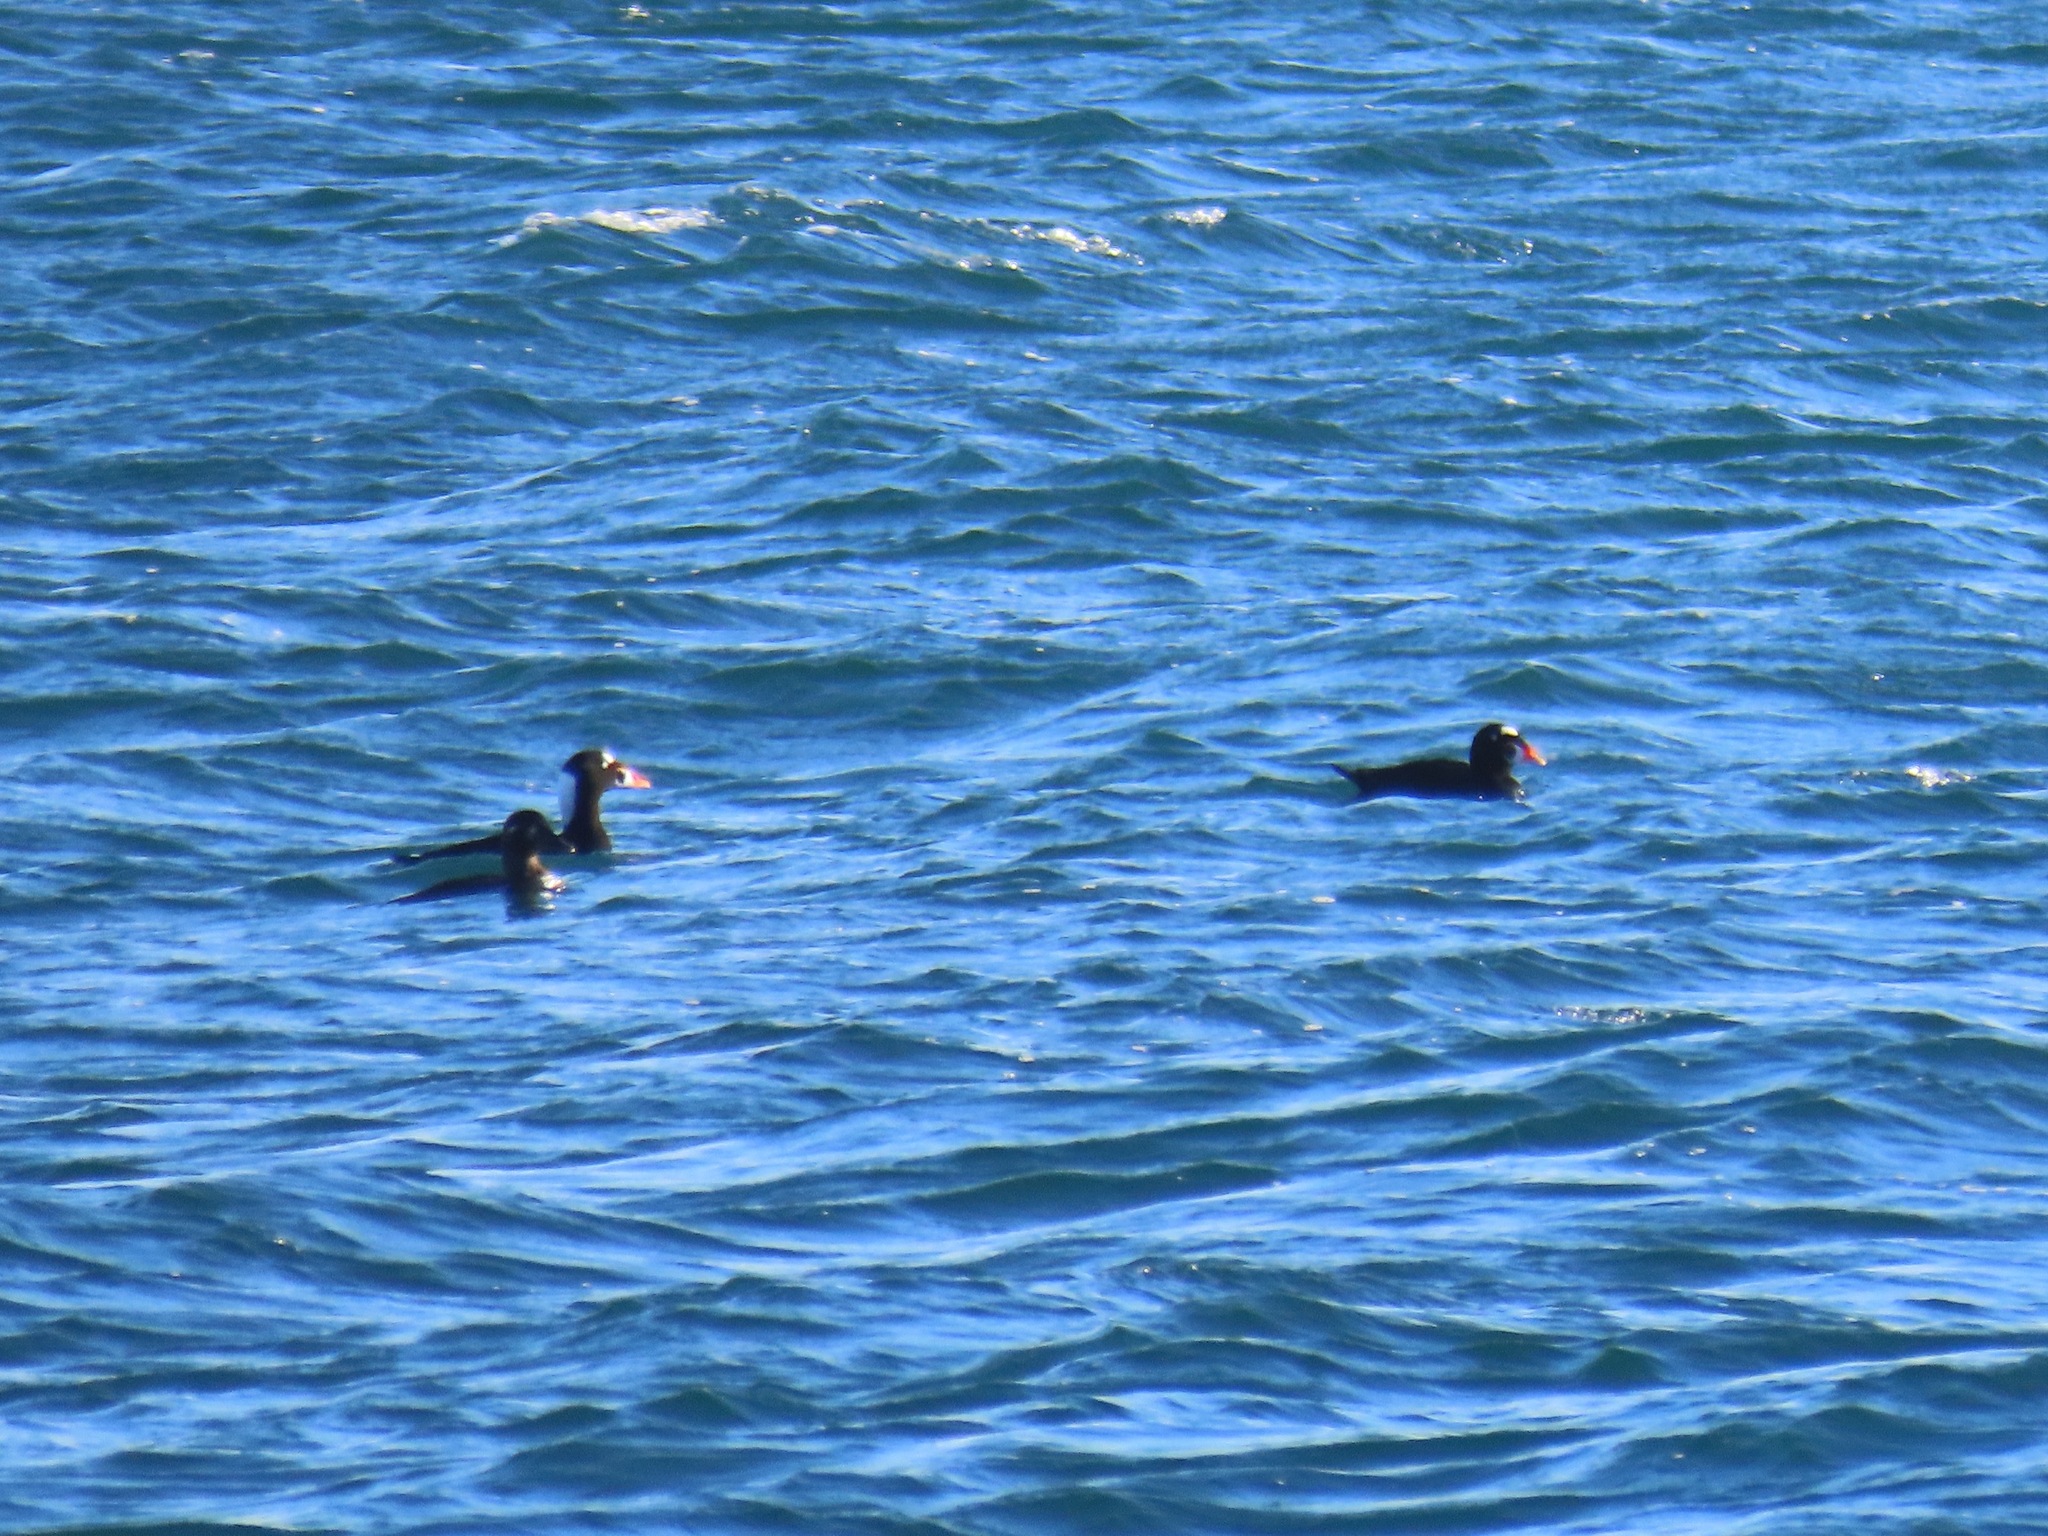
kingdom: Animalia
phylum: Chordata
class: Aves
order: Anseriformes
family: Anatidae
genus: Melanitta
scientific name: Melanitta perspicillata
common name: Surf scoter
